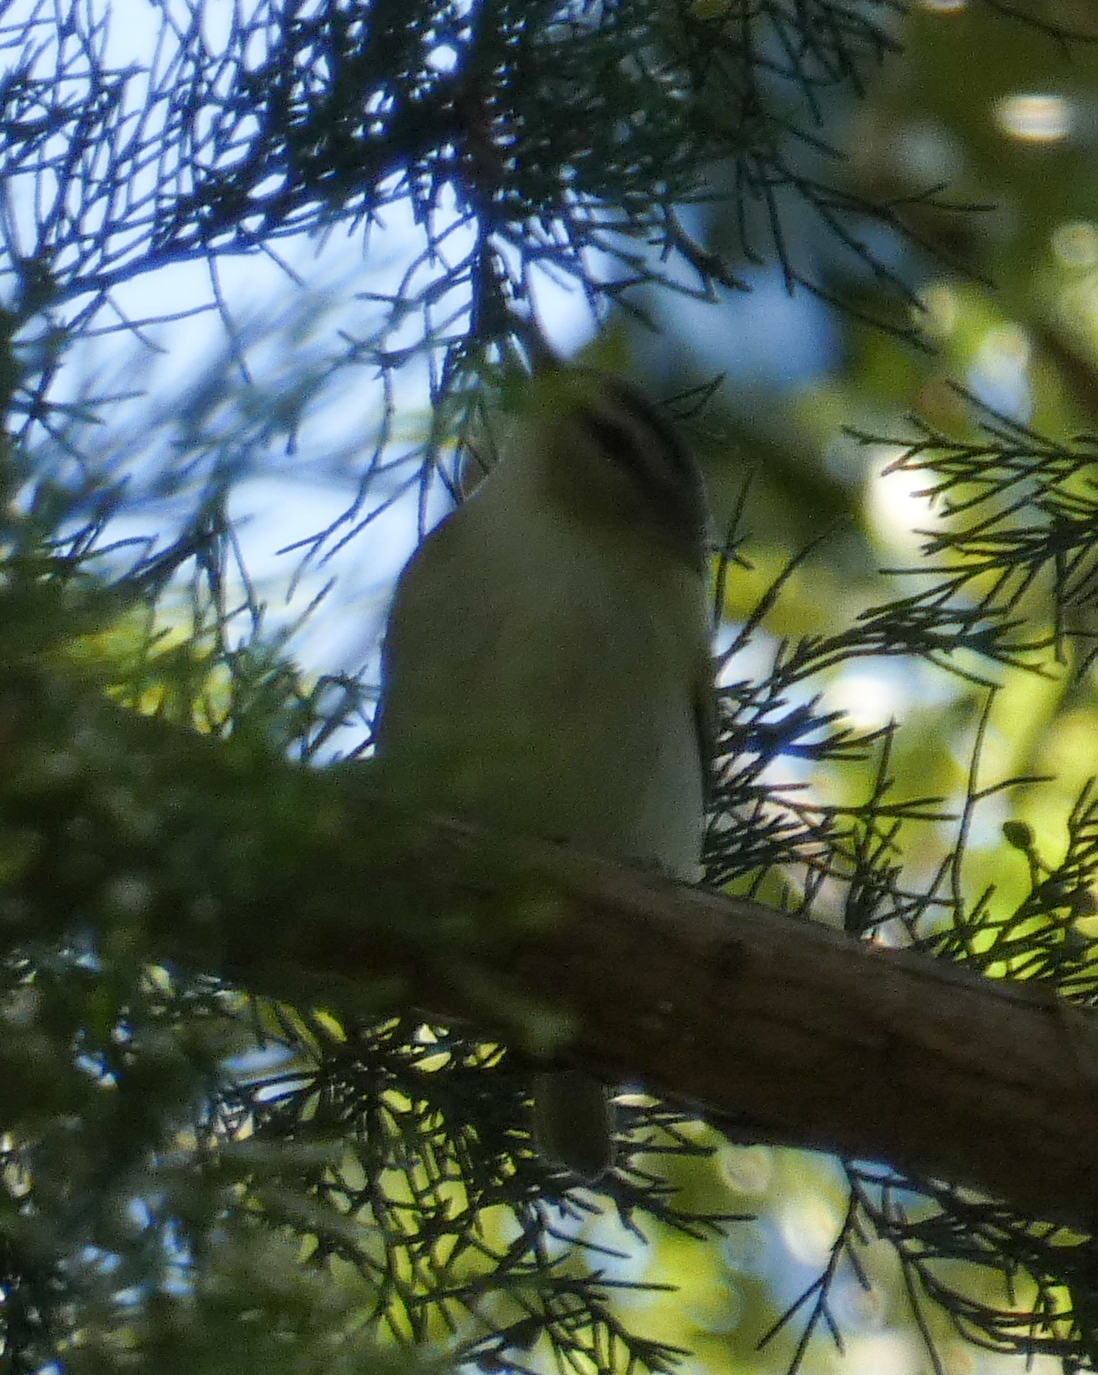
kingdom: Animalia
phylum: Chordata
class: Aves
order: Passeriformes
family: Vireonidae
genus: Vireo
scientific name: Vireo olivaceus
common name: Red-eyed vireo
